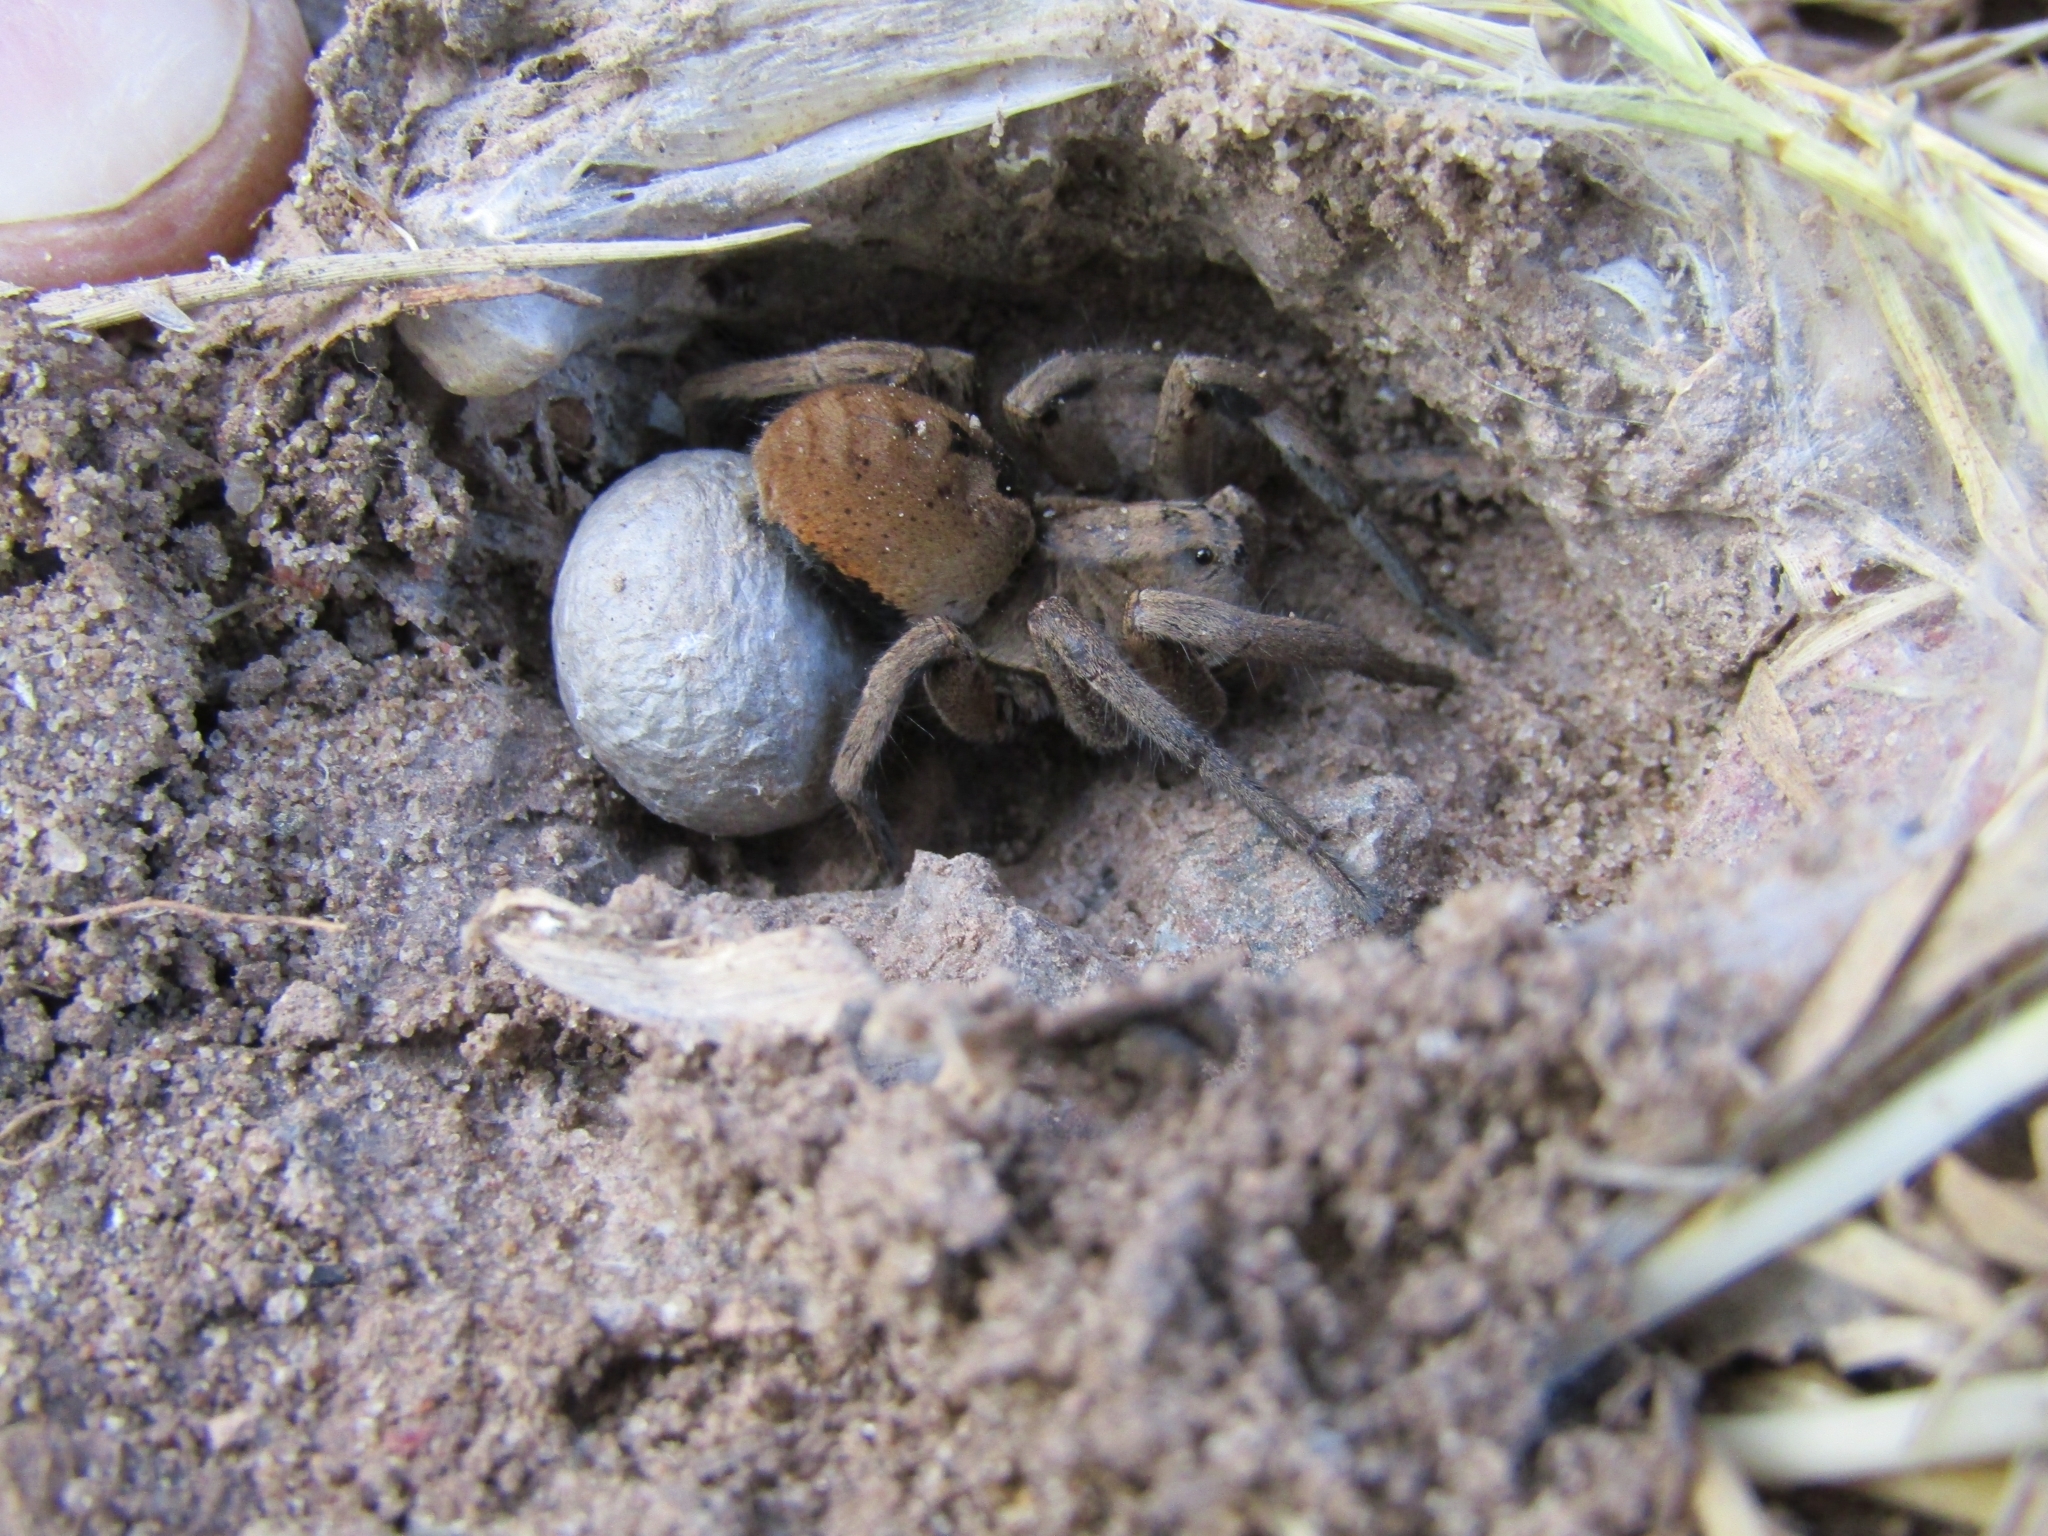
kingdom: Animalia
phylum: Arthropoda
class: Arachnida
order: Araneae
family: Lycosidae
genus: Lycosa
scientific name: Lycosa erythrognatha
